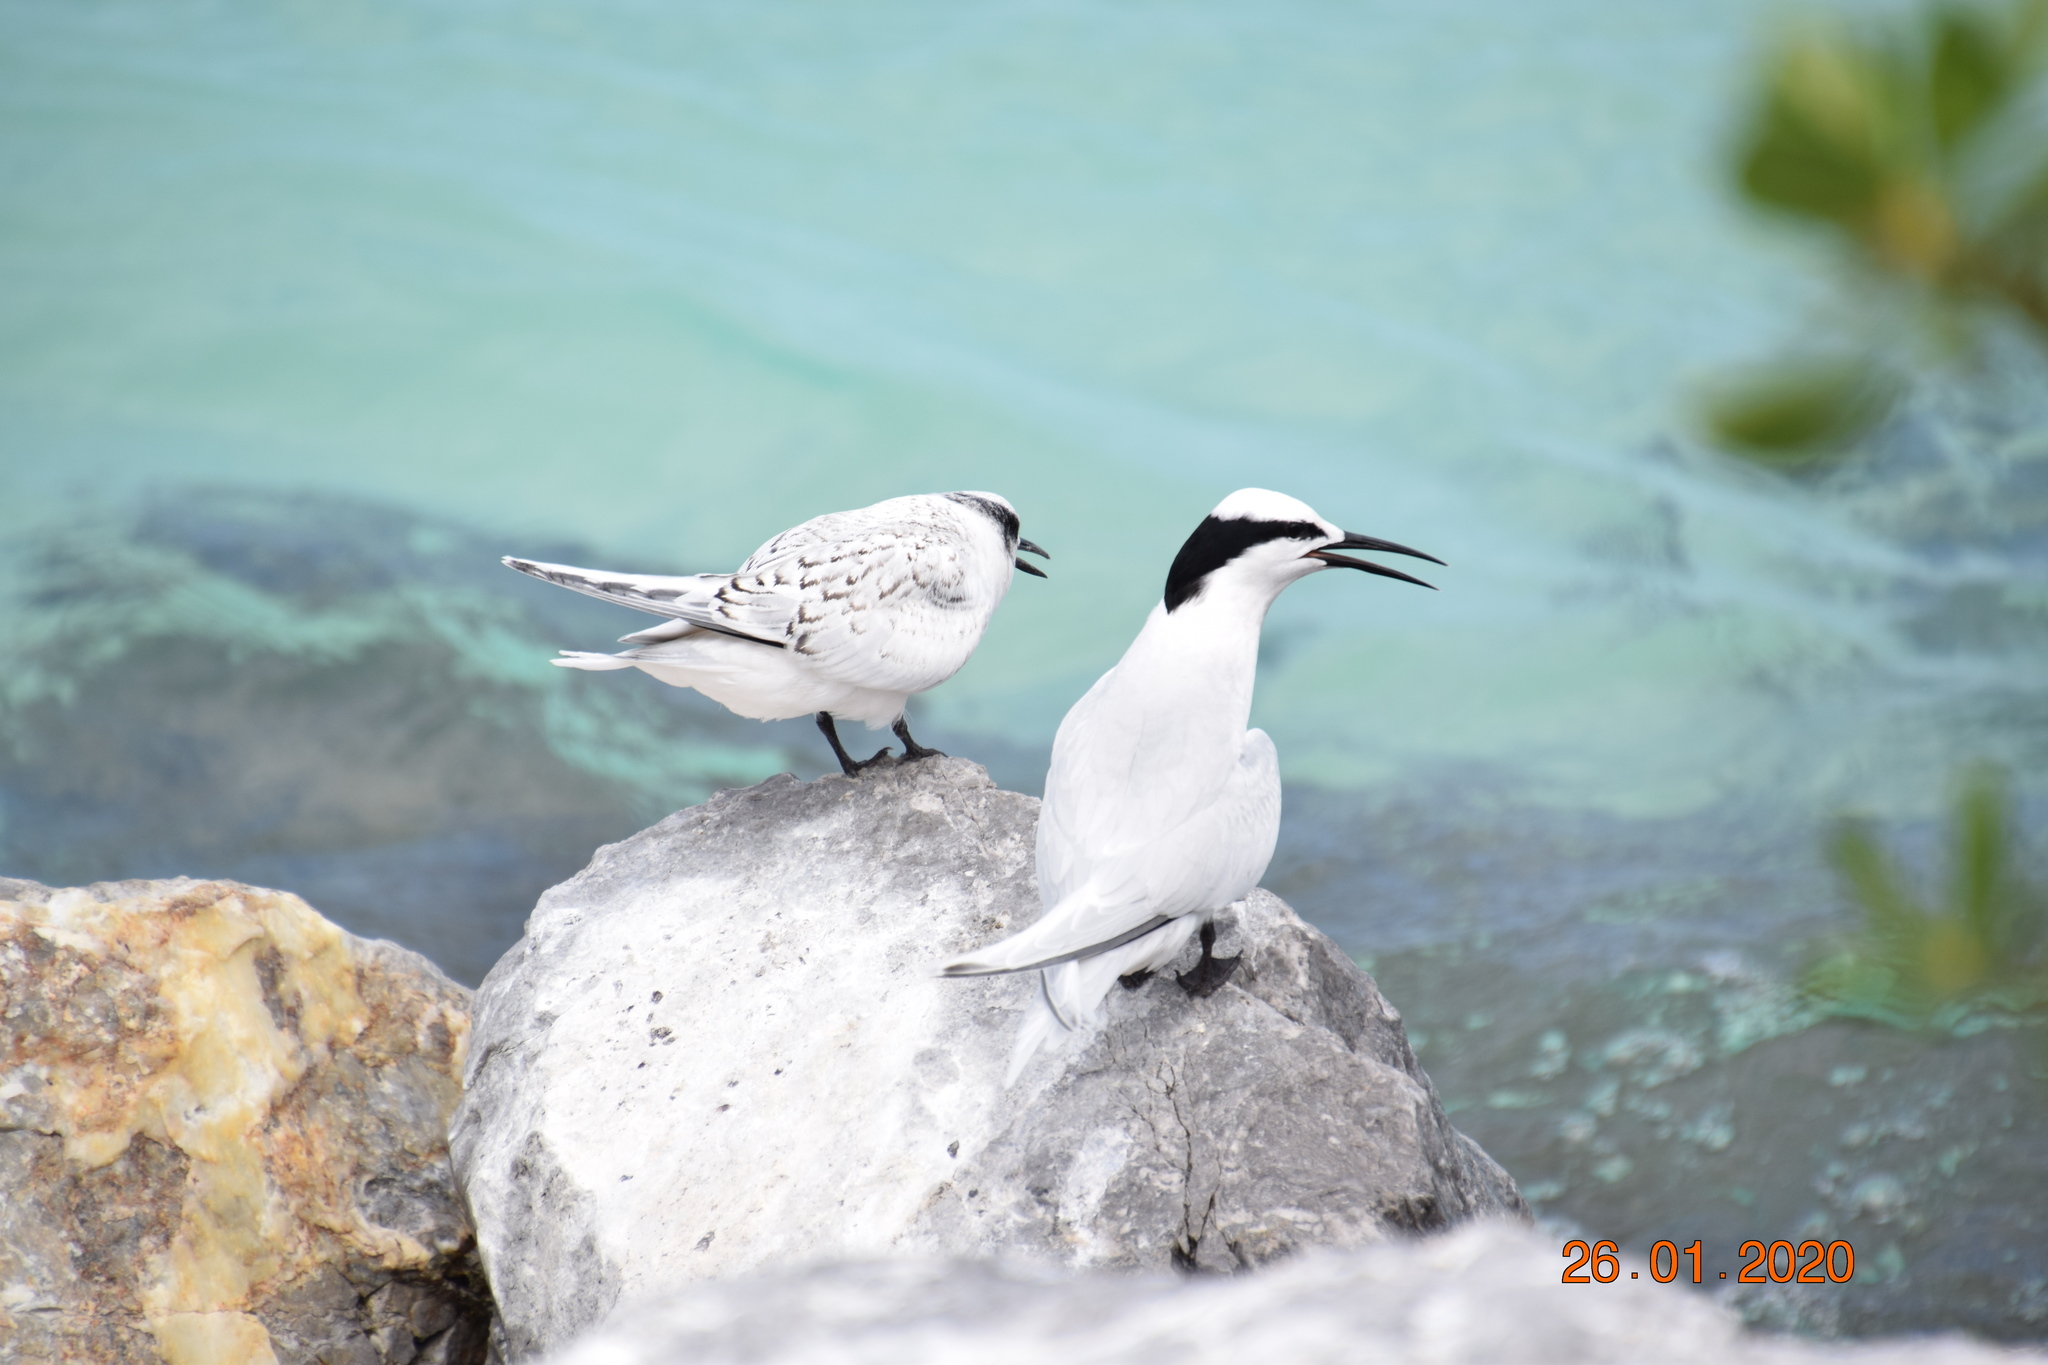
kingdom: Animalia
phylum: Chordata
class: Aves
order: Charadriiformes
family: Laridae
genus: Sterna
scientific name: Sterna sumatrana
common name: Black-naped tern
